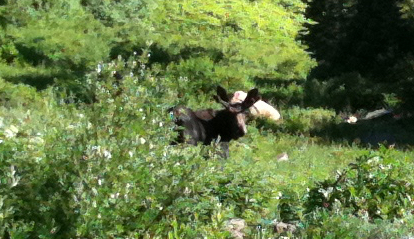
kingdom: Animalia
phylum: Chordata
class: Mammalia
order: Artiodactyla
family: Cervidae
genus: Alces
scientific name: Alces alces
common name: Moose
